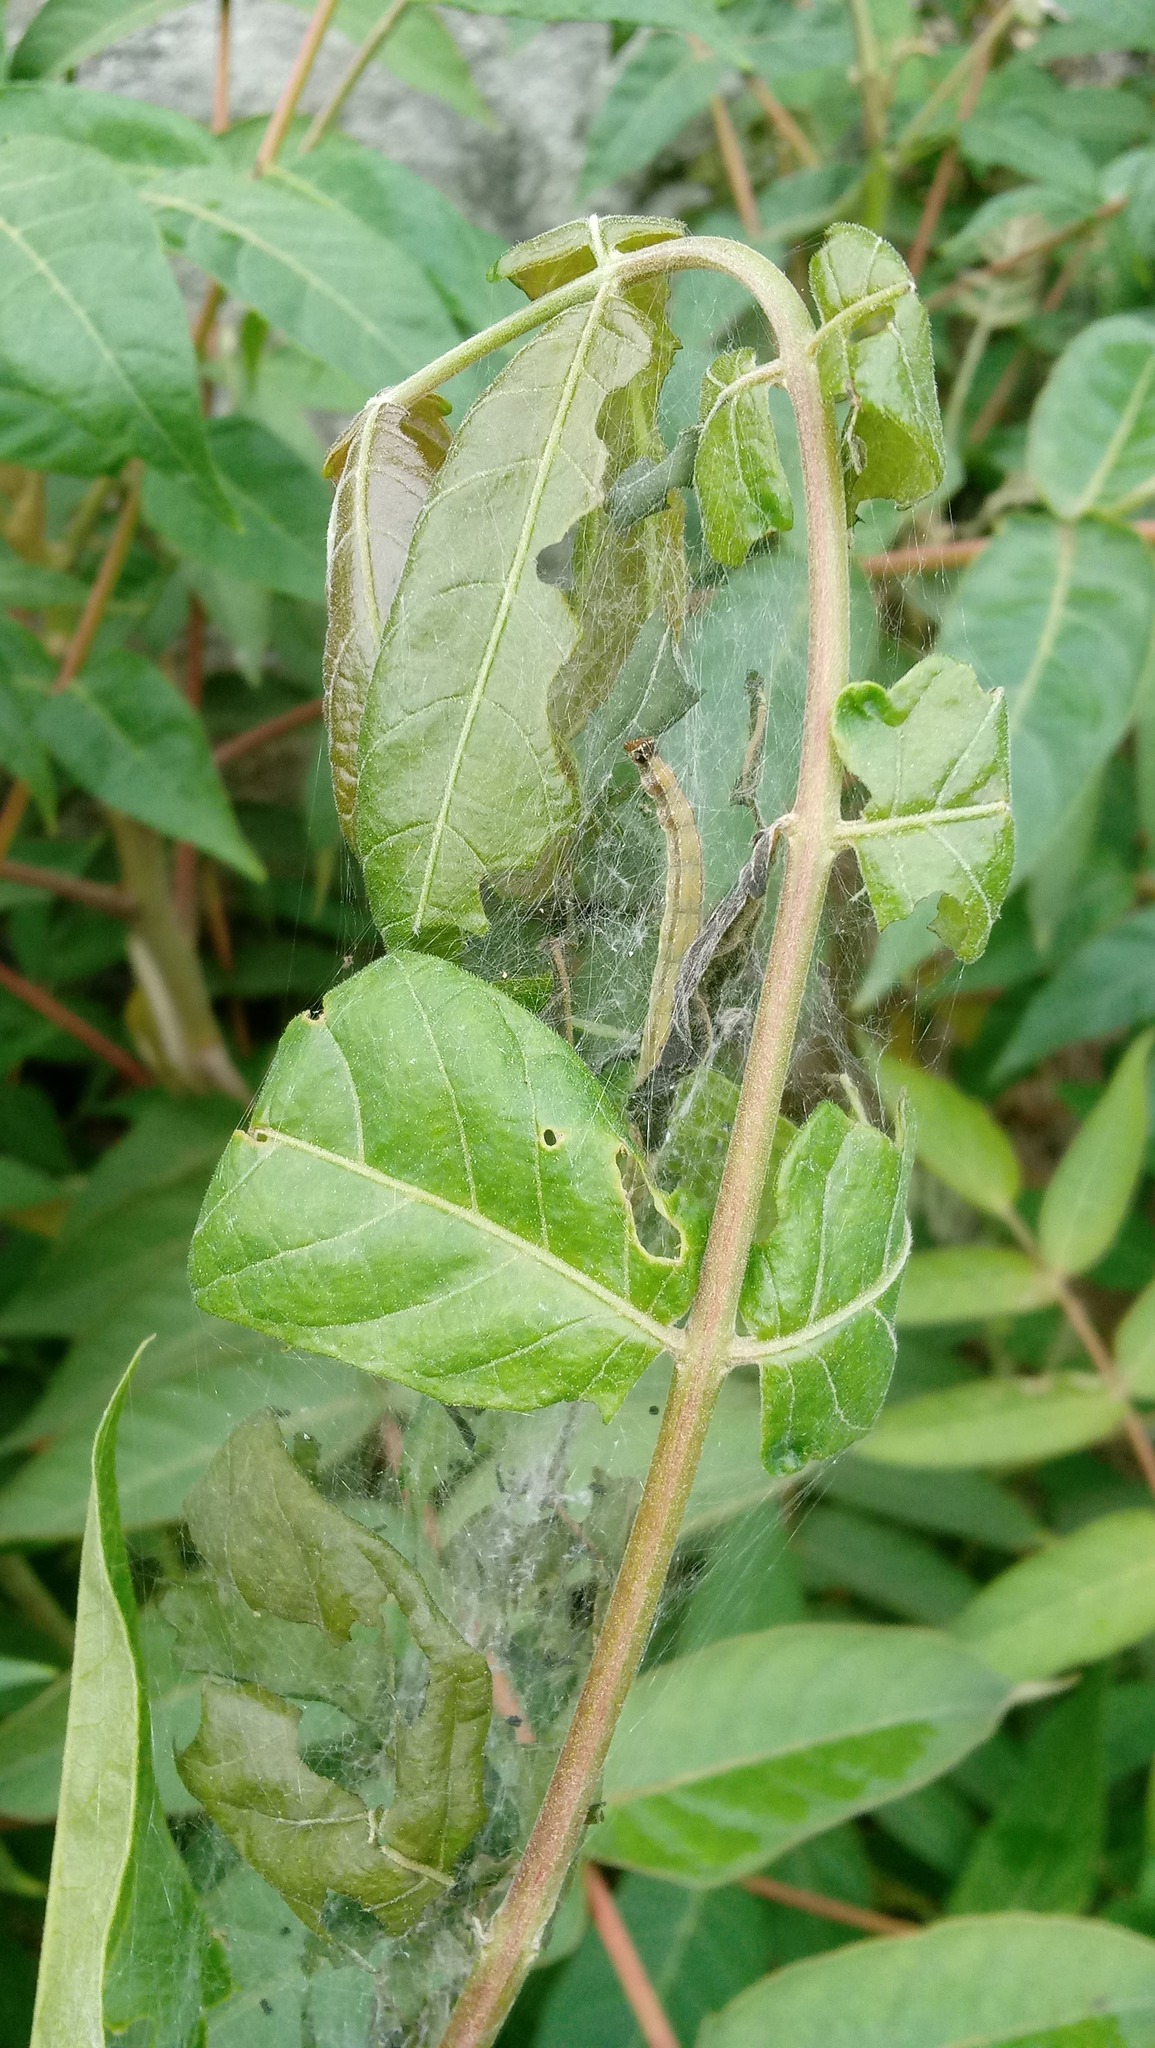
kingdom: Animalia
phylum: Arthropoda
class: Insecta
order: Lepidoptera
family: Attevidae
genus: Atteva
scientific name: Atteva punctella
